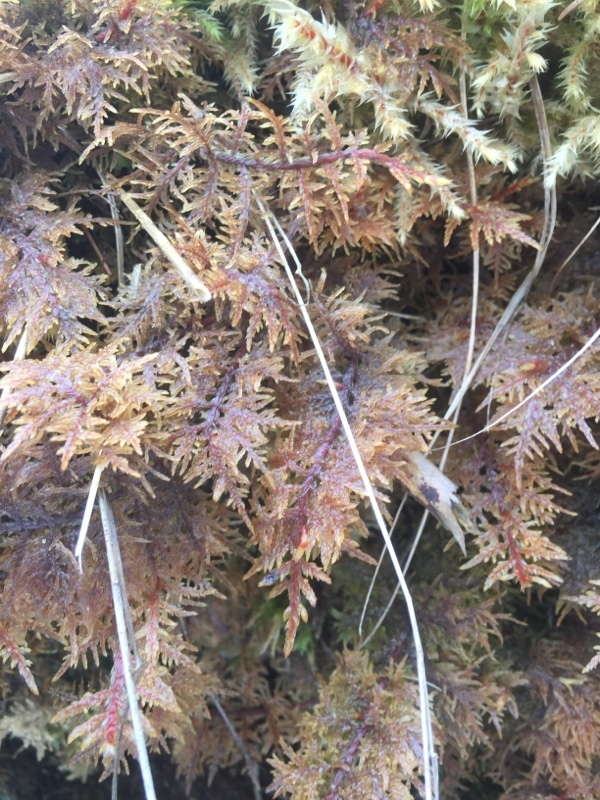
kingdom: Plantae
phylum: Bryophyta
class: Bryopsida
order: Hypnales
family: Hylocomiaceae
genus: Hylocomium
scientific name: Hylocomium splendens
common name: Stairstep moss
